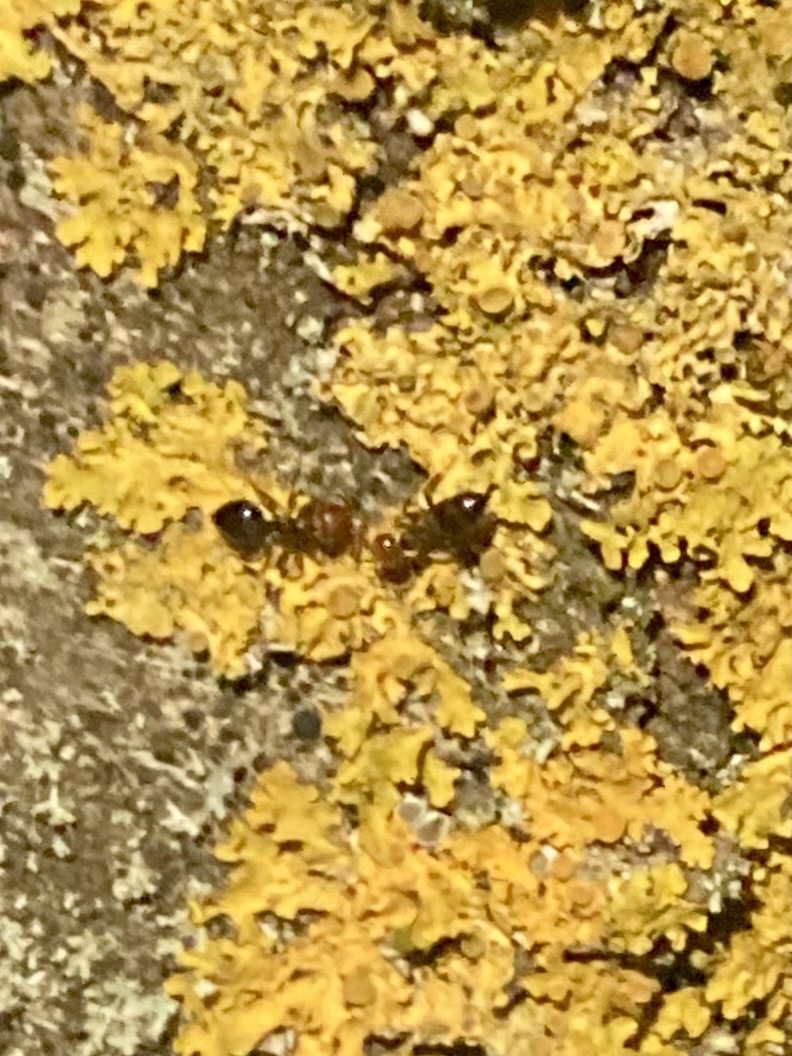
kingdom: Animalia
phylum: Arthropoda
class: Insecta
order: Hymenoptera
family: Formicidae
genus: Crematogaster
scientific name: Crematogaster scutellaris
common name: Fourmi du liège
